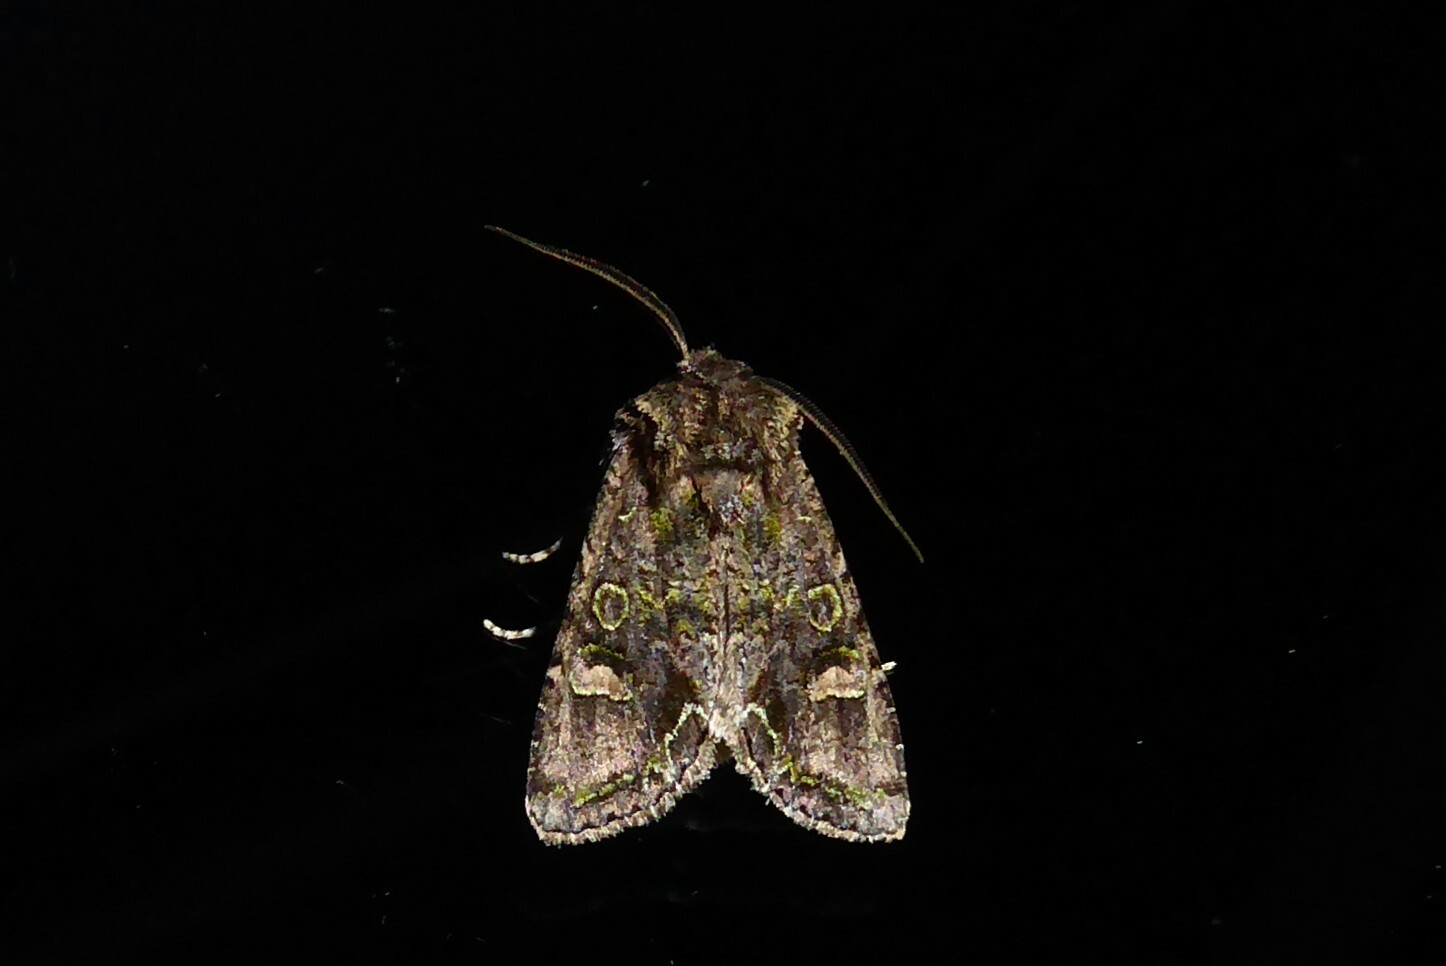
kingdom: Animalia
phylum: Arthropoda
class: Insecta
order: Lepidoptera
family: Noctuidae
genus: Ichneutica
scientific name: Ichneutica insignis
